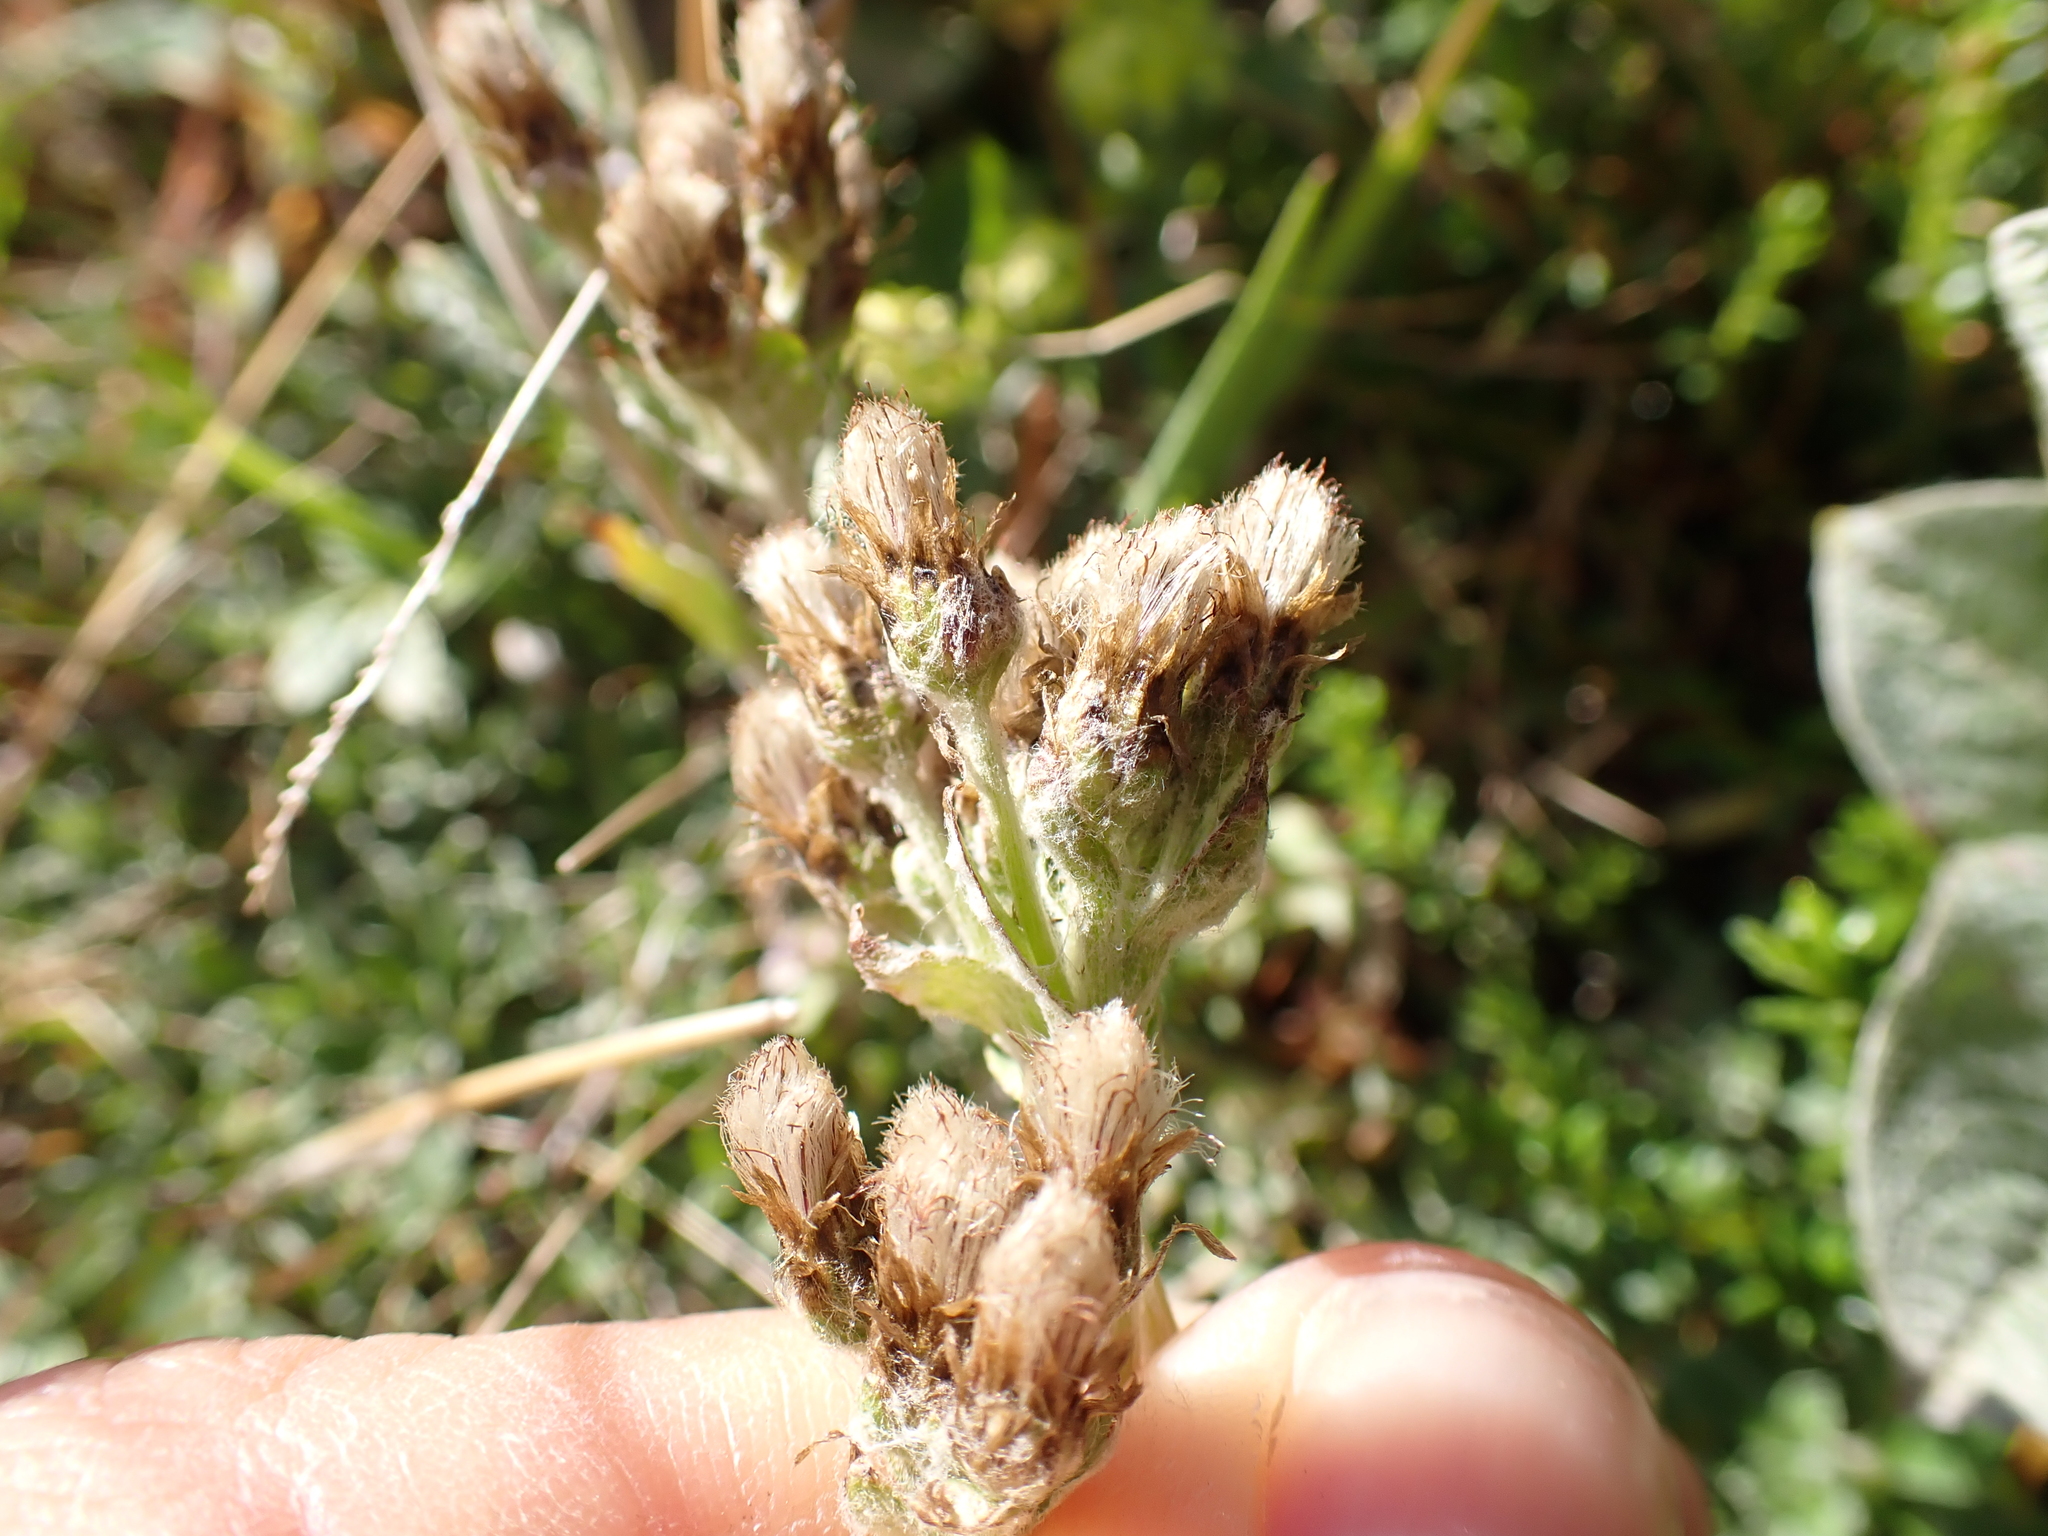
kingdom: Plantae
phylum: Tracheophyta
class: Magnoliopsida
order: Asterales
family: Asteraceae
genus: Antennaria
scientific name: Antennaria alpina
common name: Alpine pussytoes
